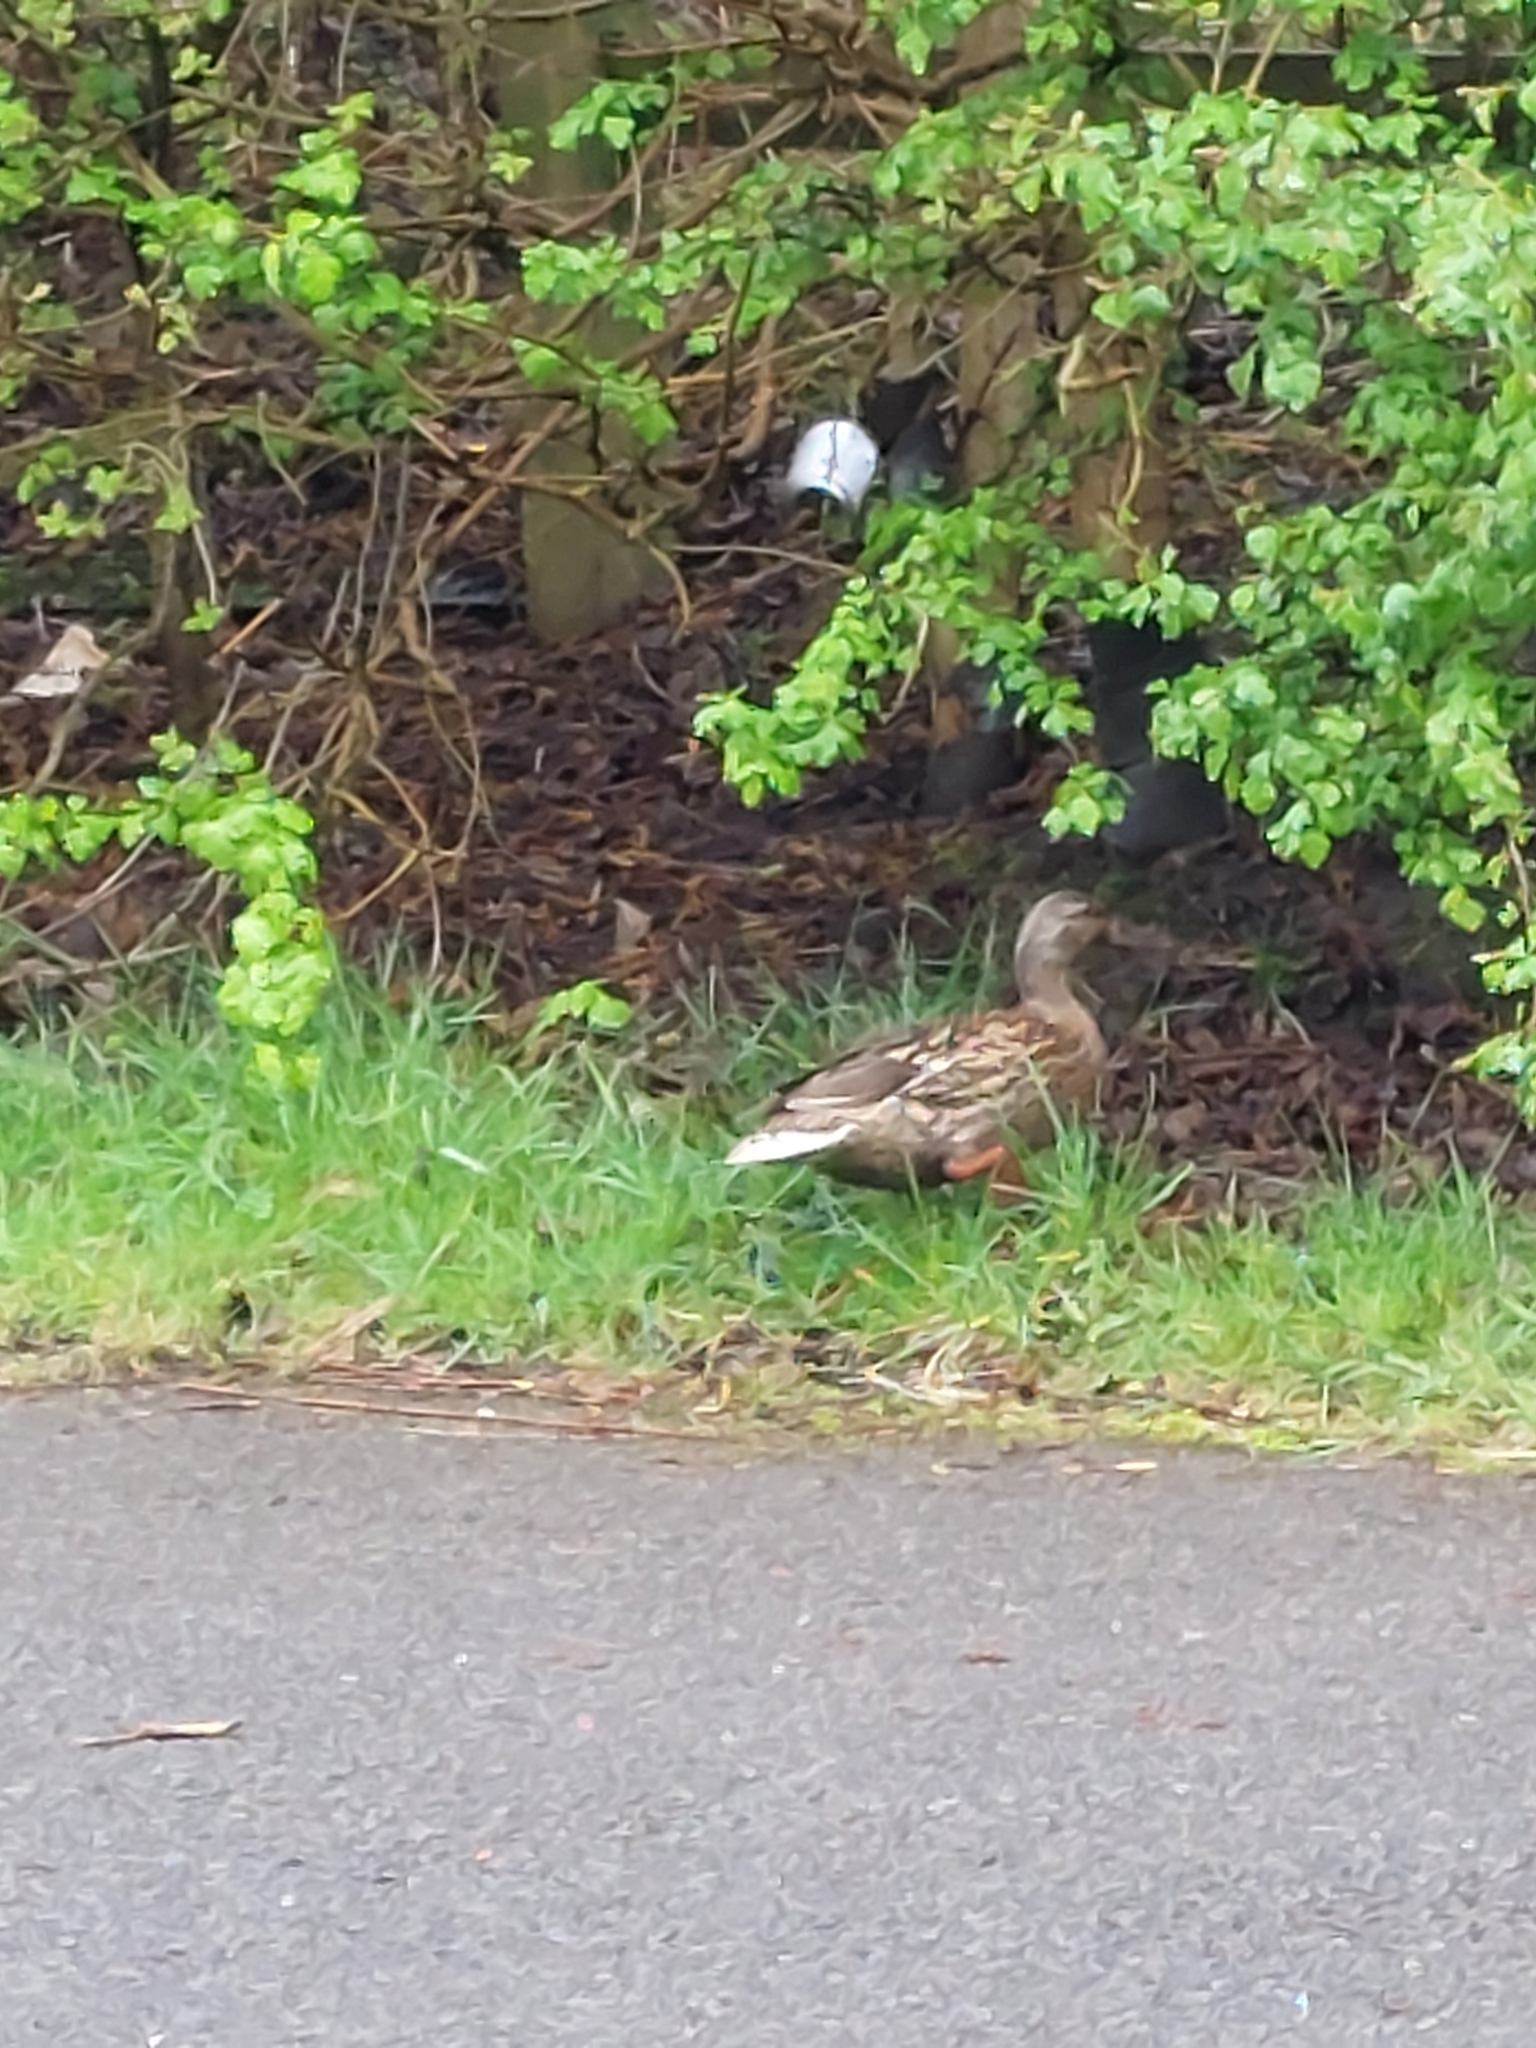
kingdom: Animalia
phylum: Chordata
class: Aves
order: Anseriformes
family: Anatidae
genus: Anas
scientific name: Anas platyrhynchos
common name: Mallard
